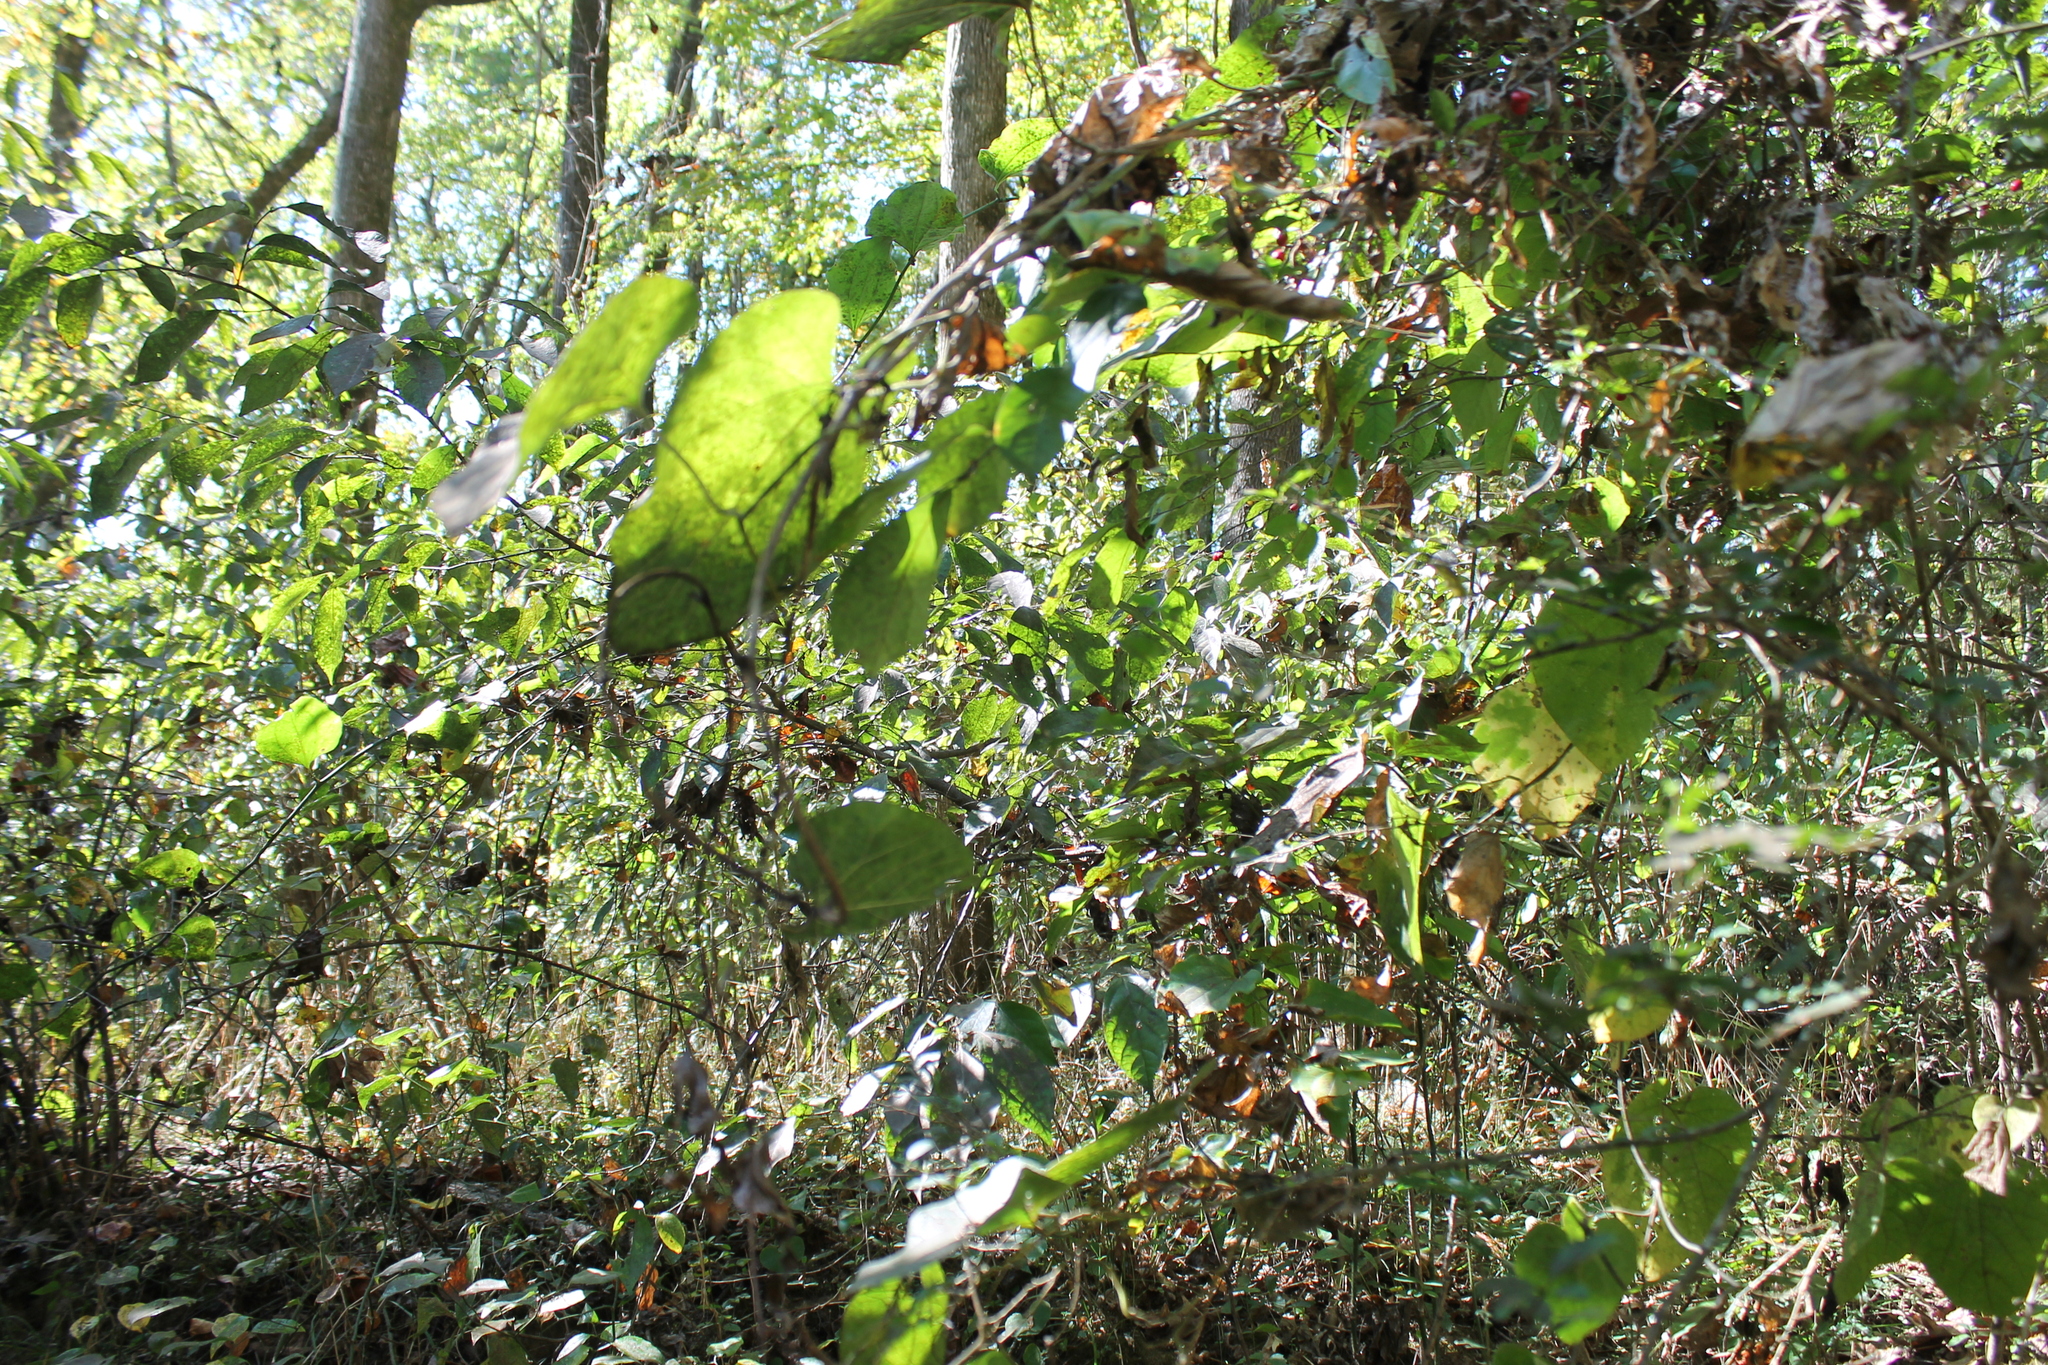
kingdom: Plantae
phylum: Tracheophyta
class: Magnoliopsida
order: Piperales
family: Aristolochiaceae
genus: Isotrema
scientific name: Isotrema tomentosum
